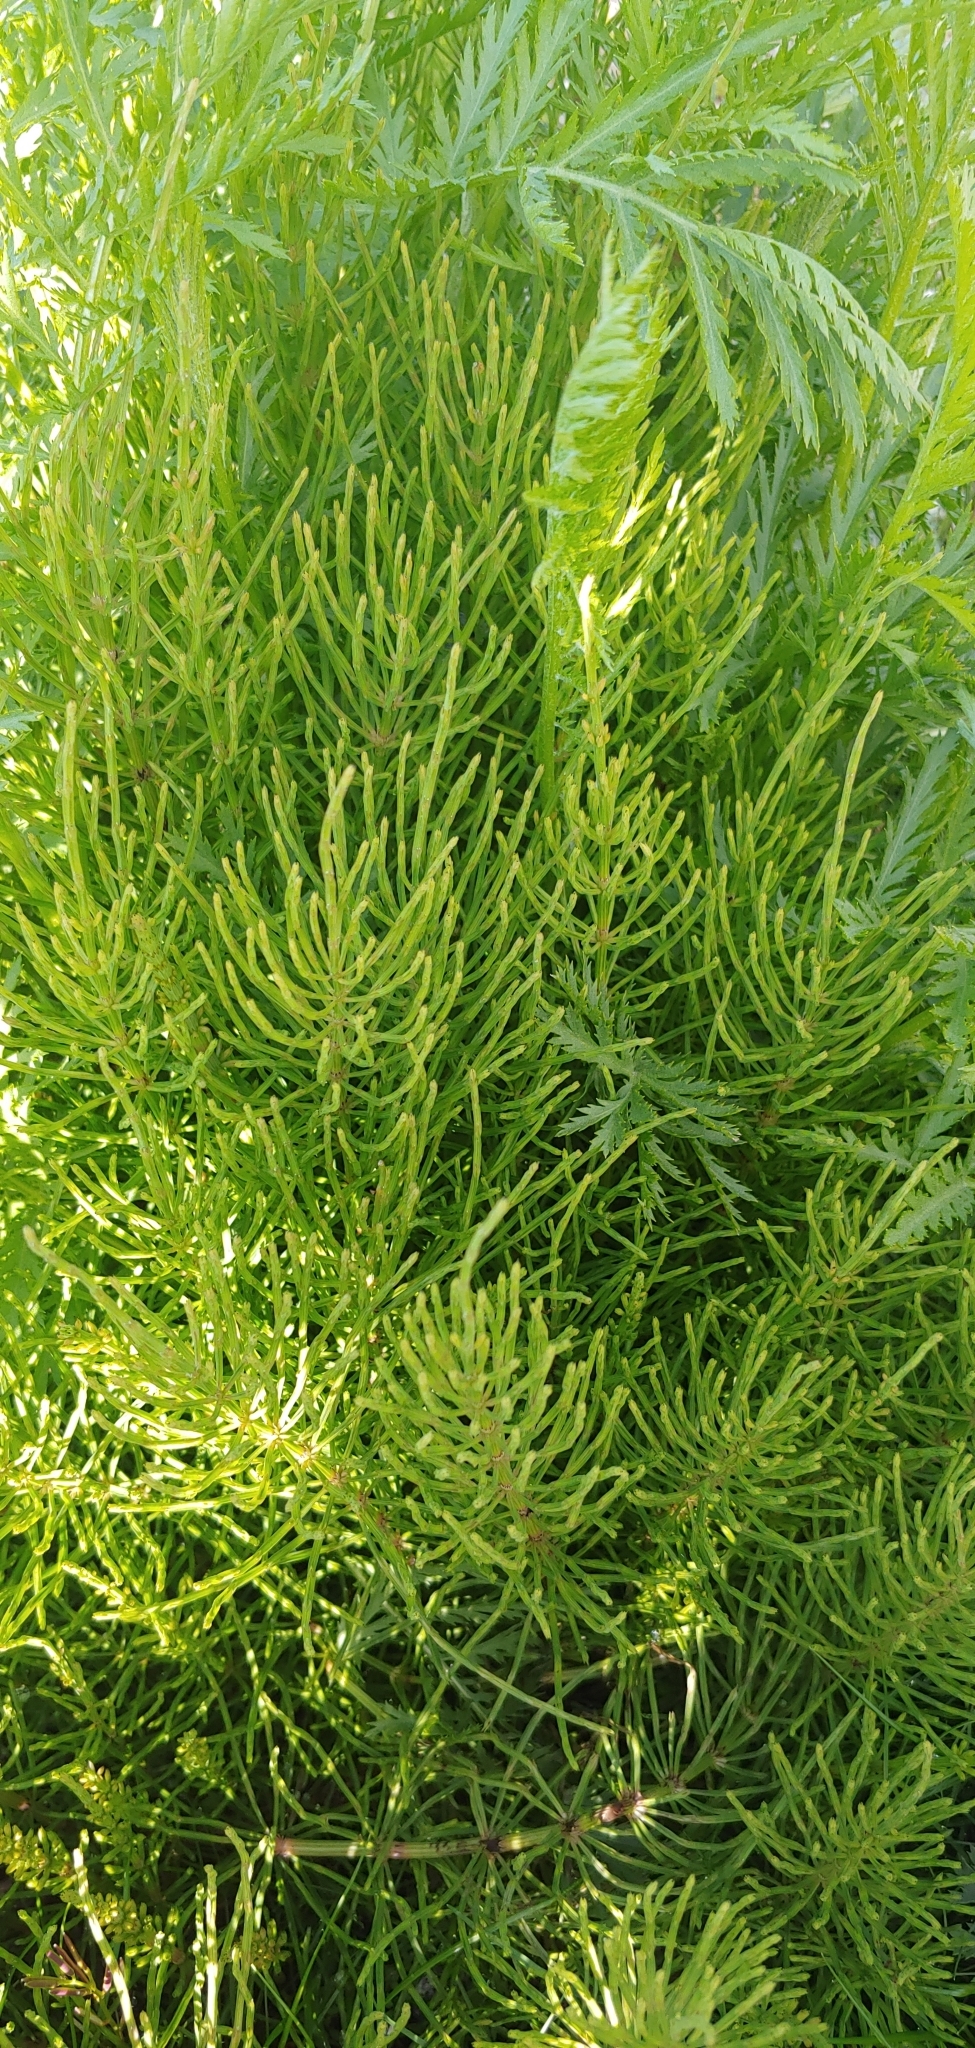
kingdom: Plantae
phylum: Tracheophyta
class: Polypodiopsida
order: Equisetales
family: Equisetaceae
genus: Equisetum
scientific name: Equisetum arvense
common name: Field horsetail
